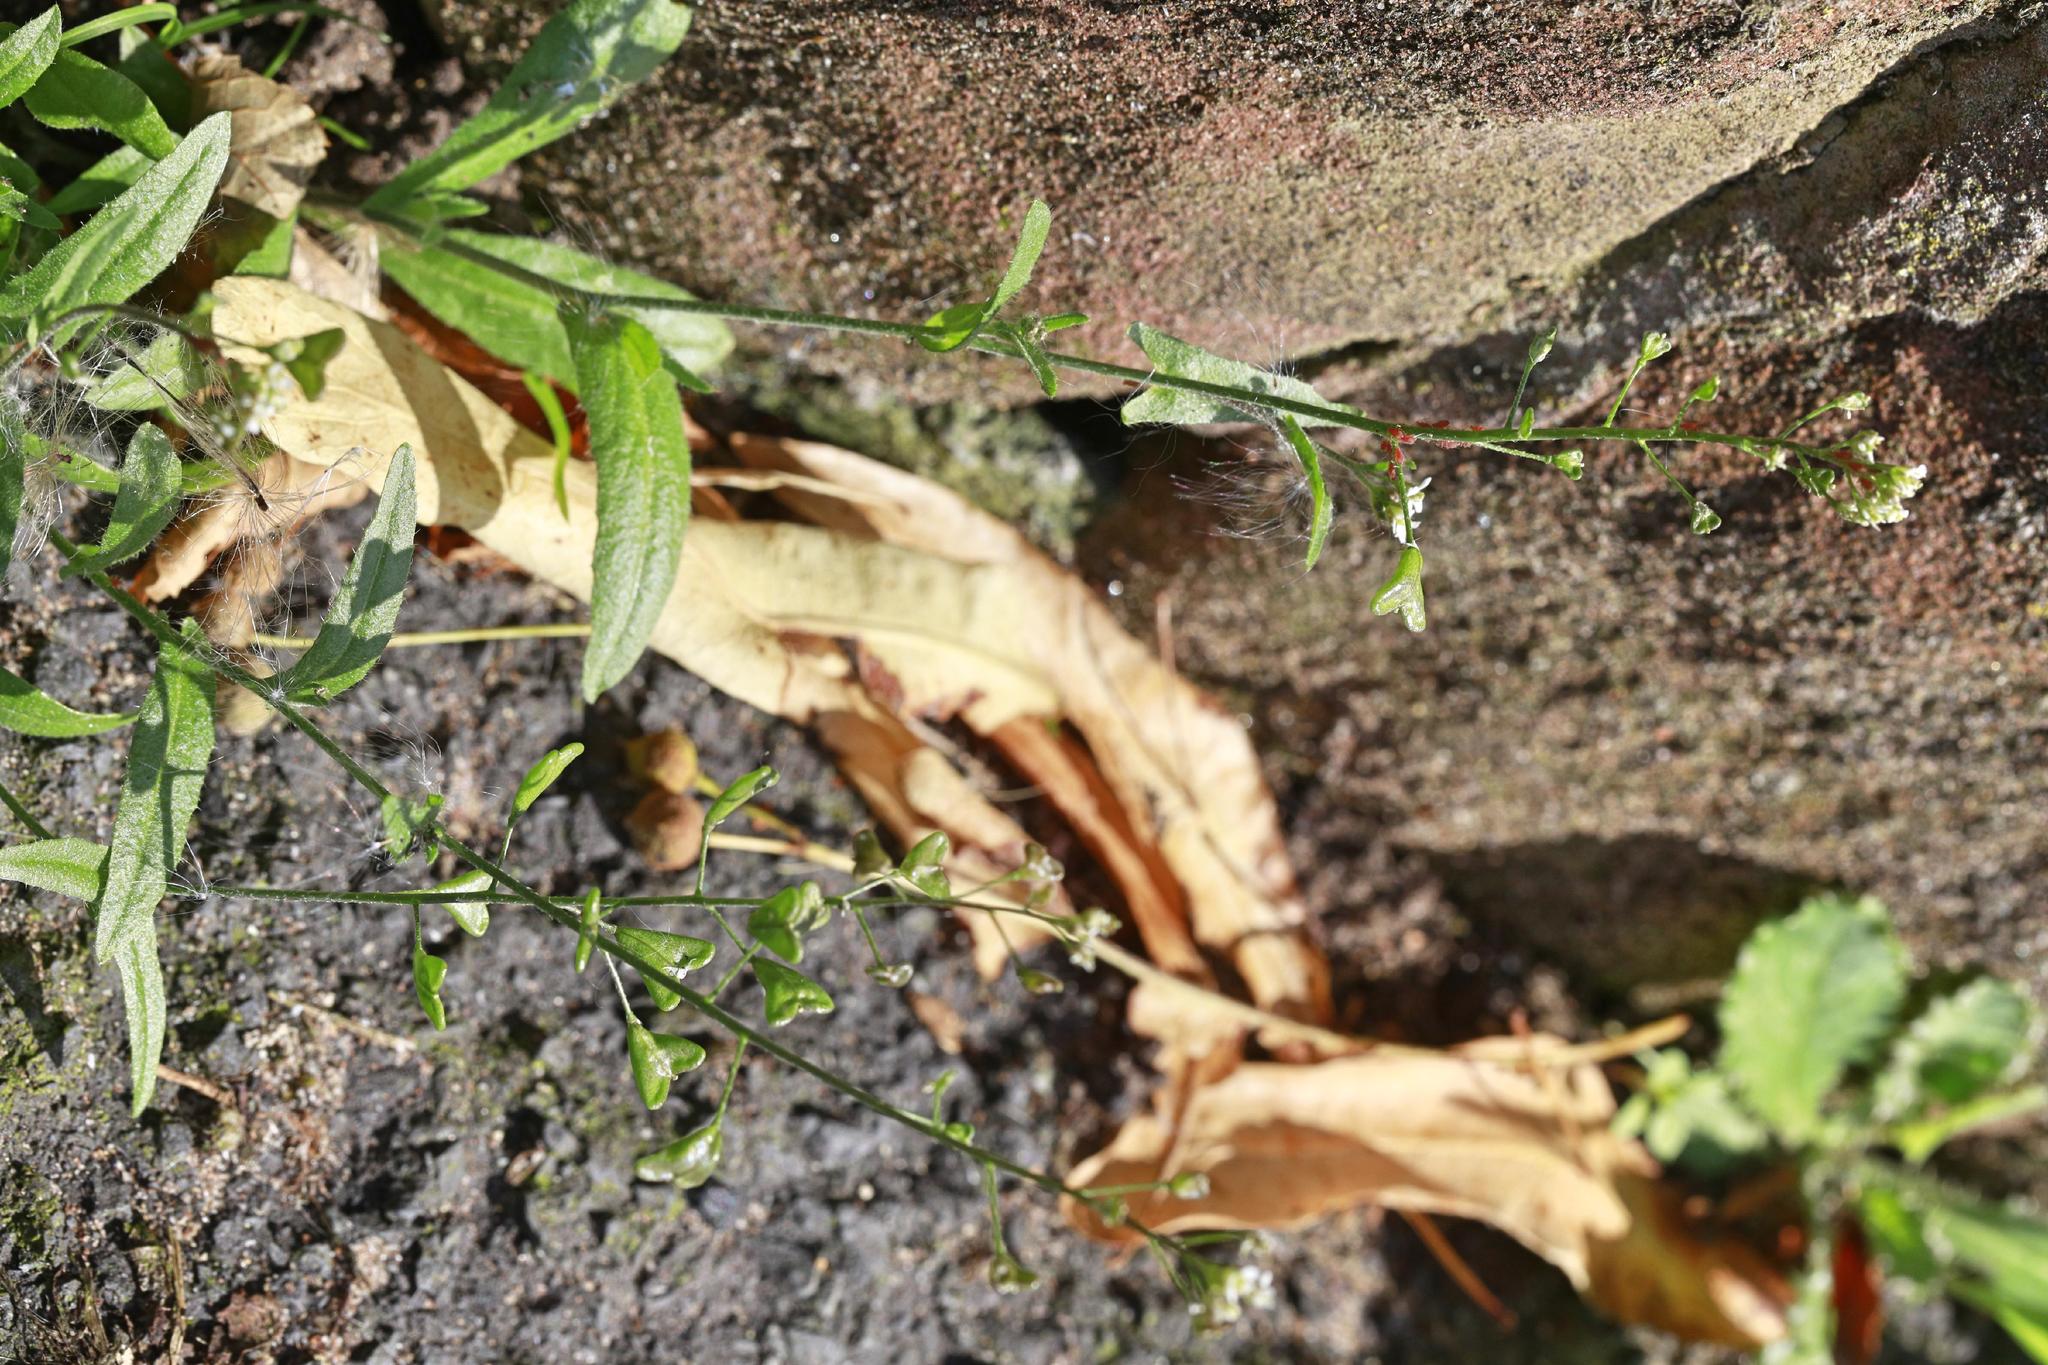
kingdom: Plantae
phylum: Tracheophyta
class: Magnoliopsida
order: Brassicales
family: Brassicaceae
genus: Capsella
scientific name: Capsella bursa-pastoris
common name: Shepherd's purse
